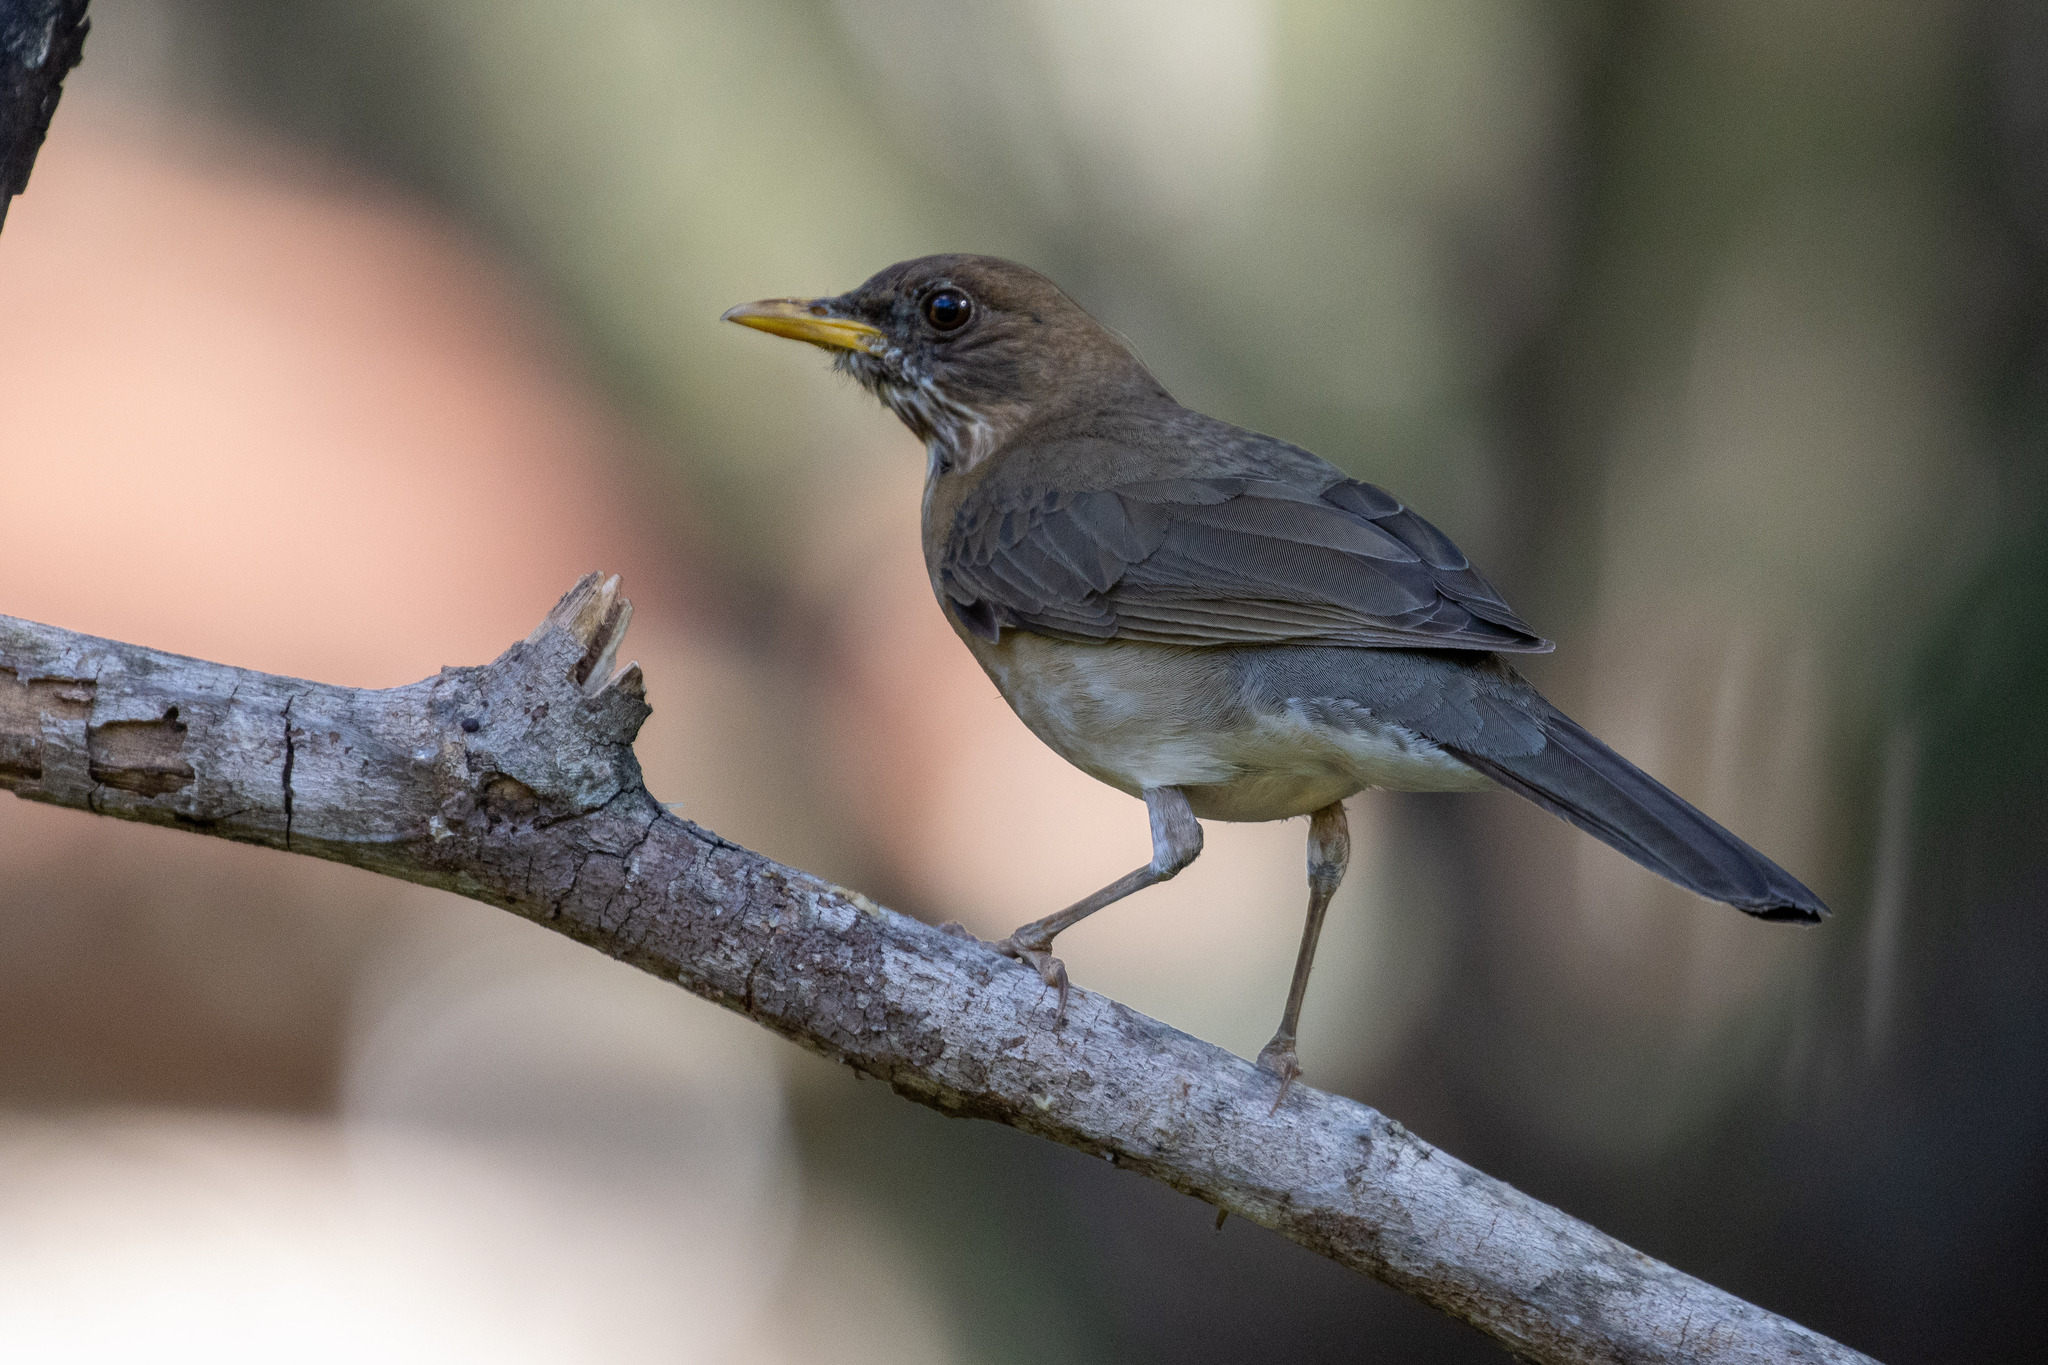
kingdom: Animalia
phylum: Chordata
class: Aves
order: Passeriformes
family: Turdidae
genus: Turdus
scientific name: Turdus amaurochalinus
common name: Creamy-bellied thrush
